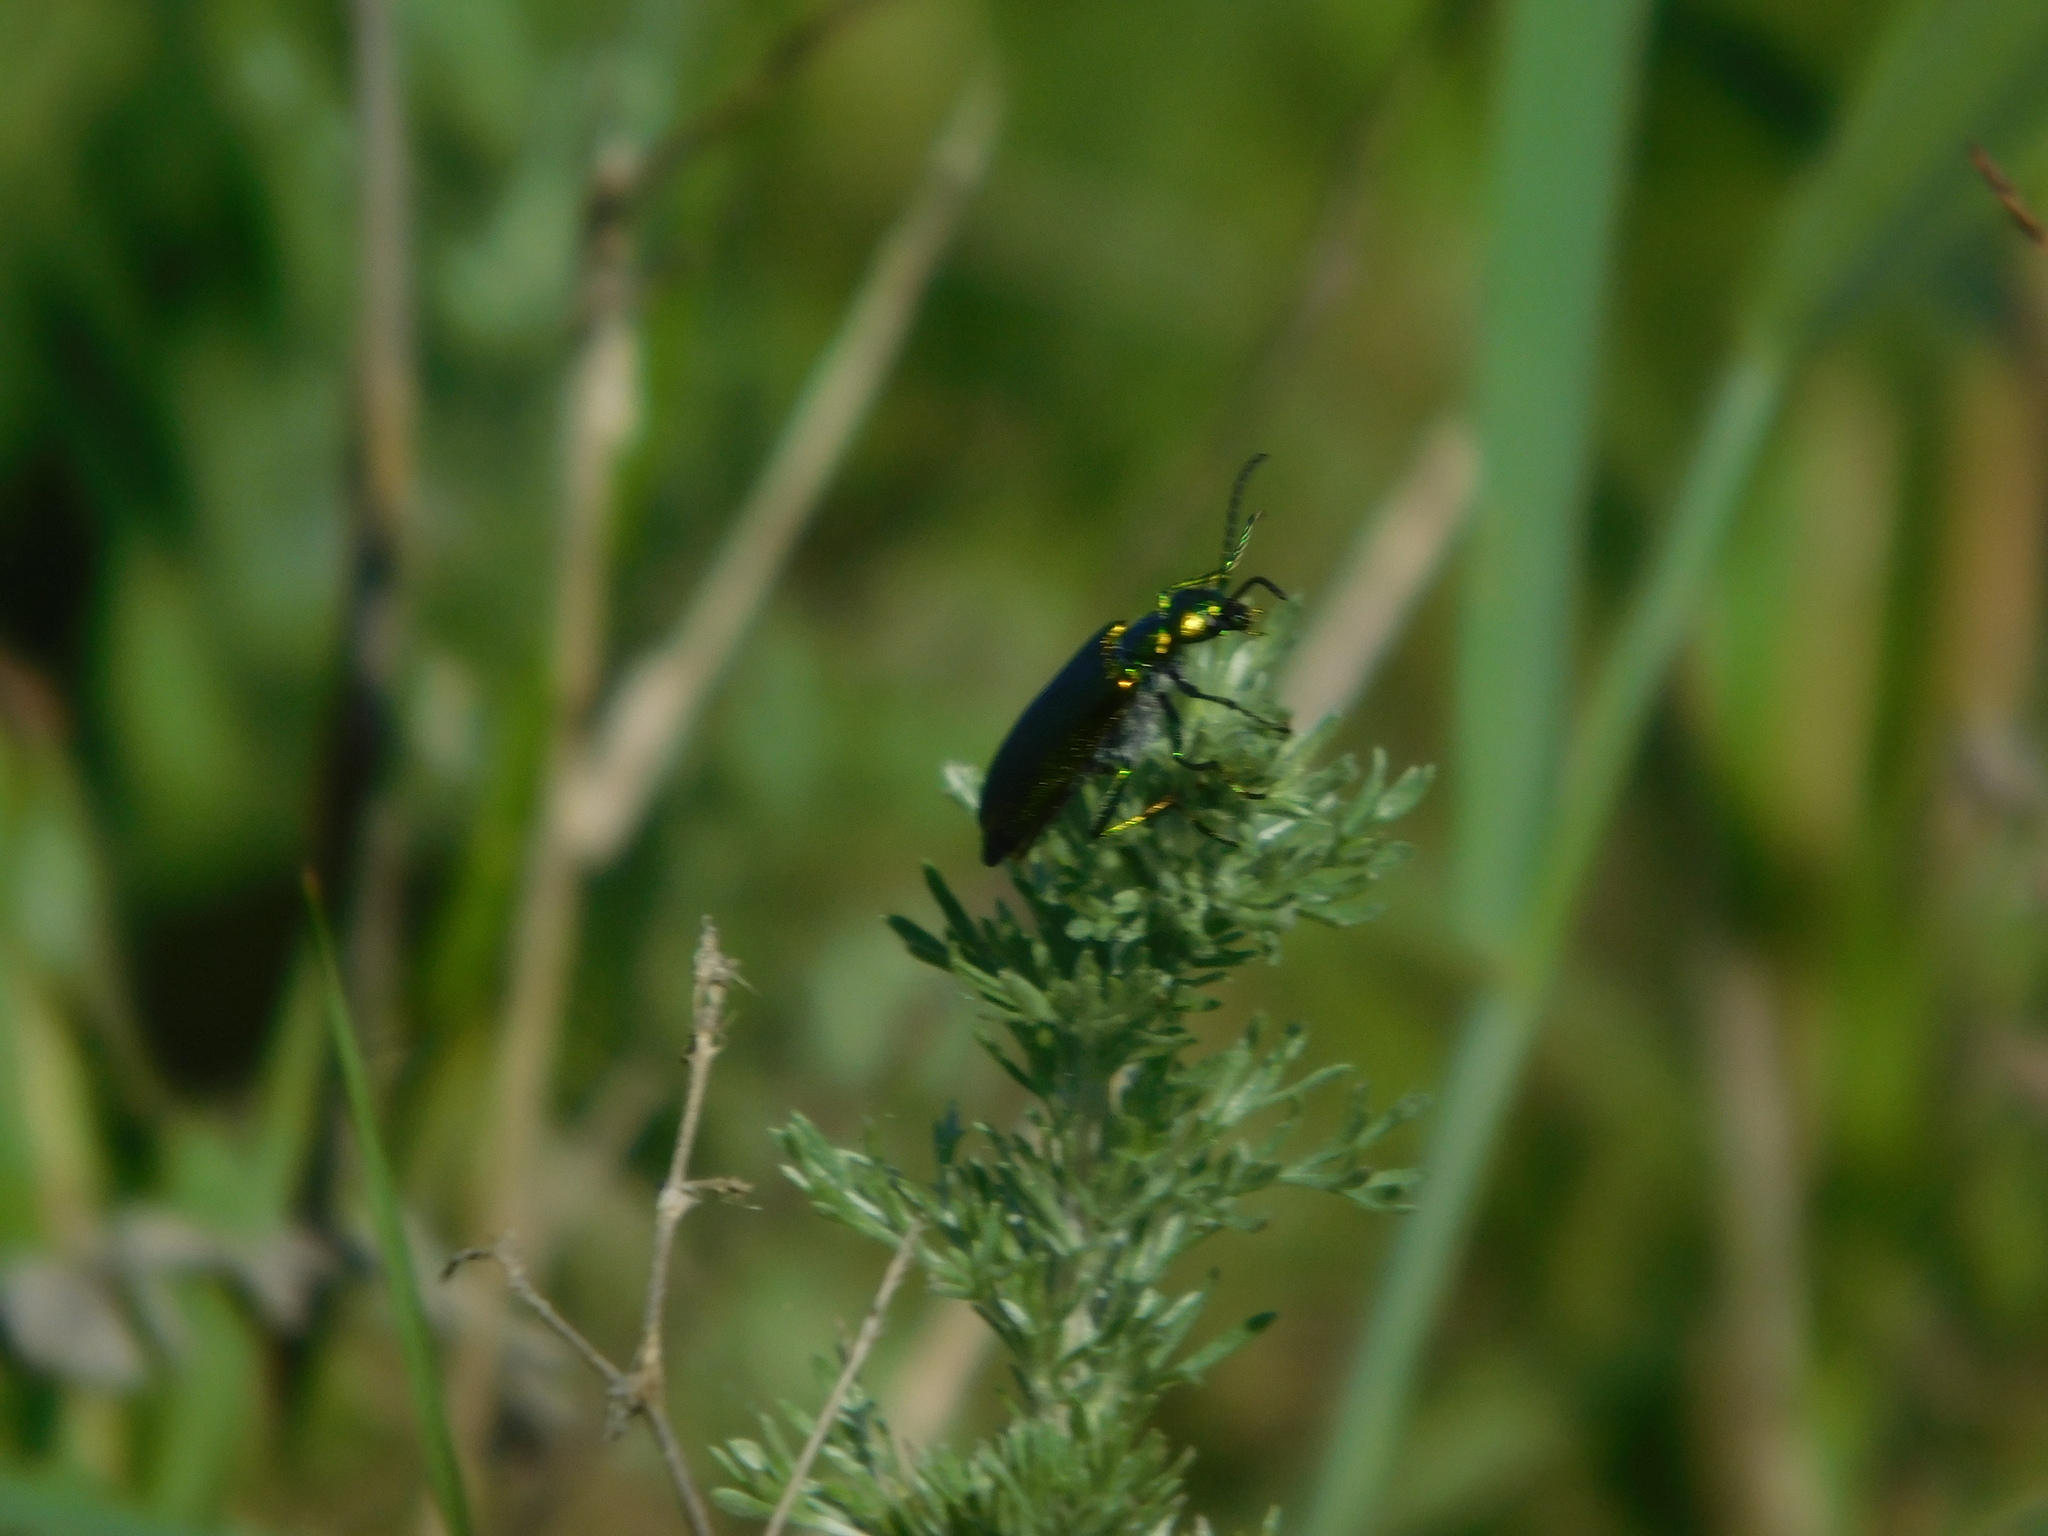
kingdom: Animalia
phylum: Arthropoda
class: Insecta
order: Coleoptera
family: Meloidae
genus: Lytta
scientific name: Lytta vesicatoria
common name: Spanish fly
